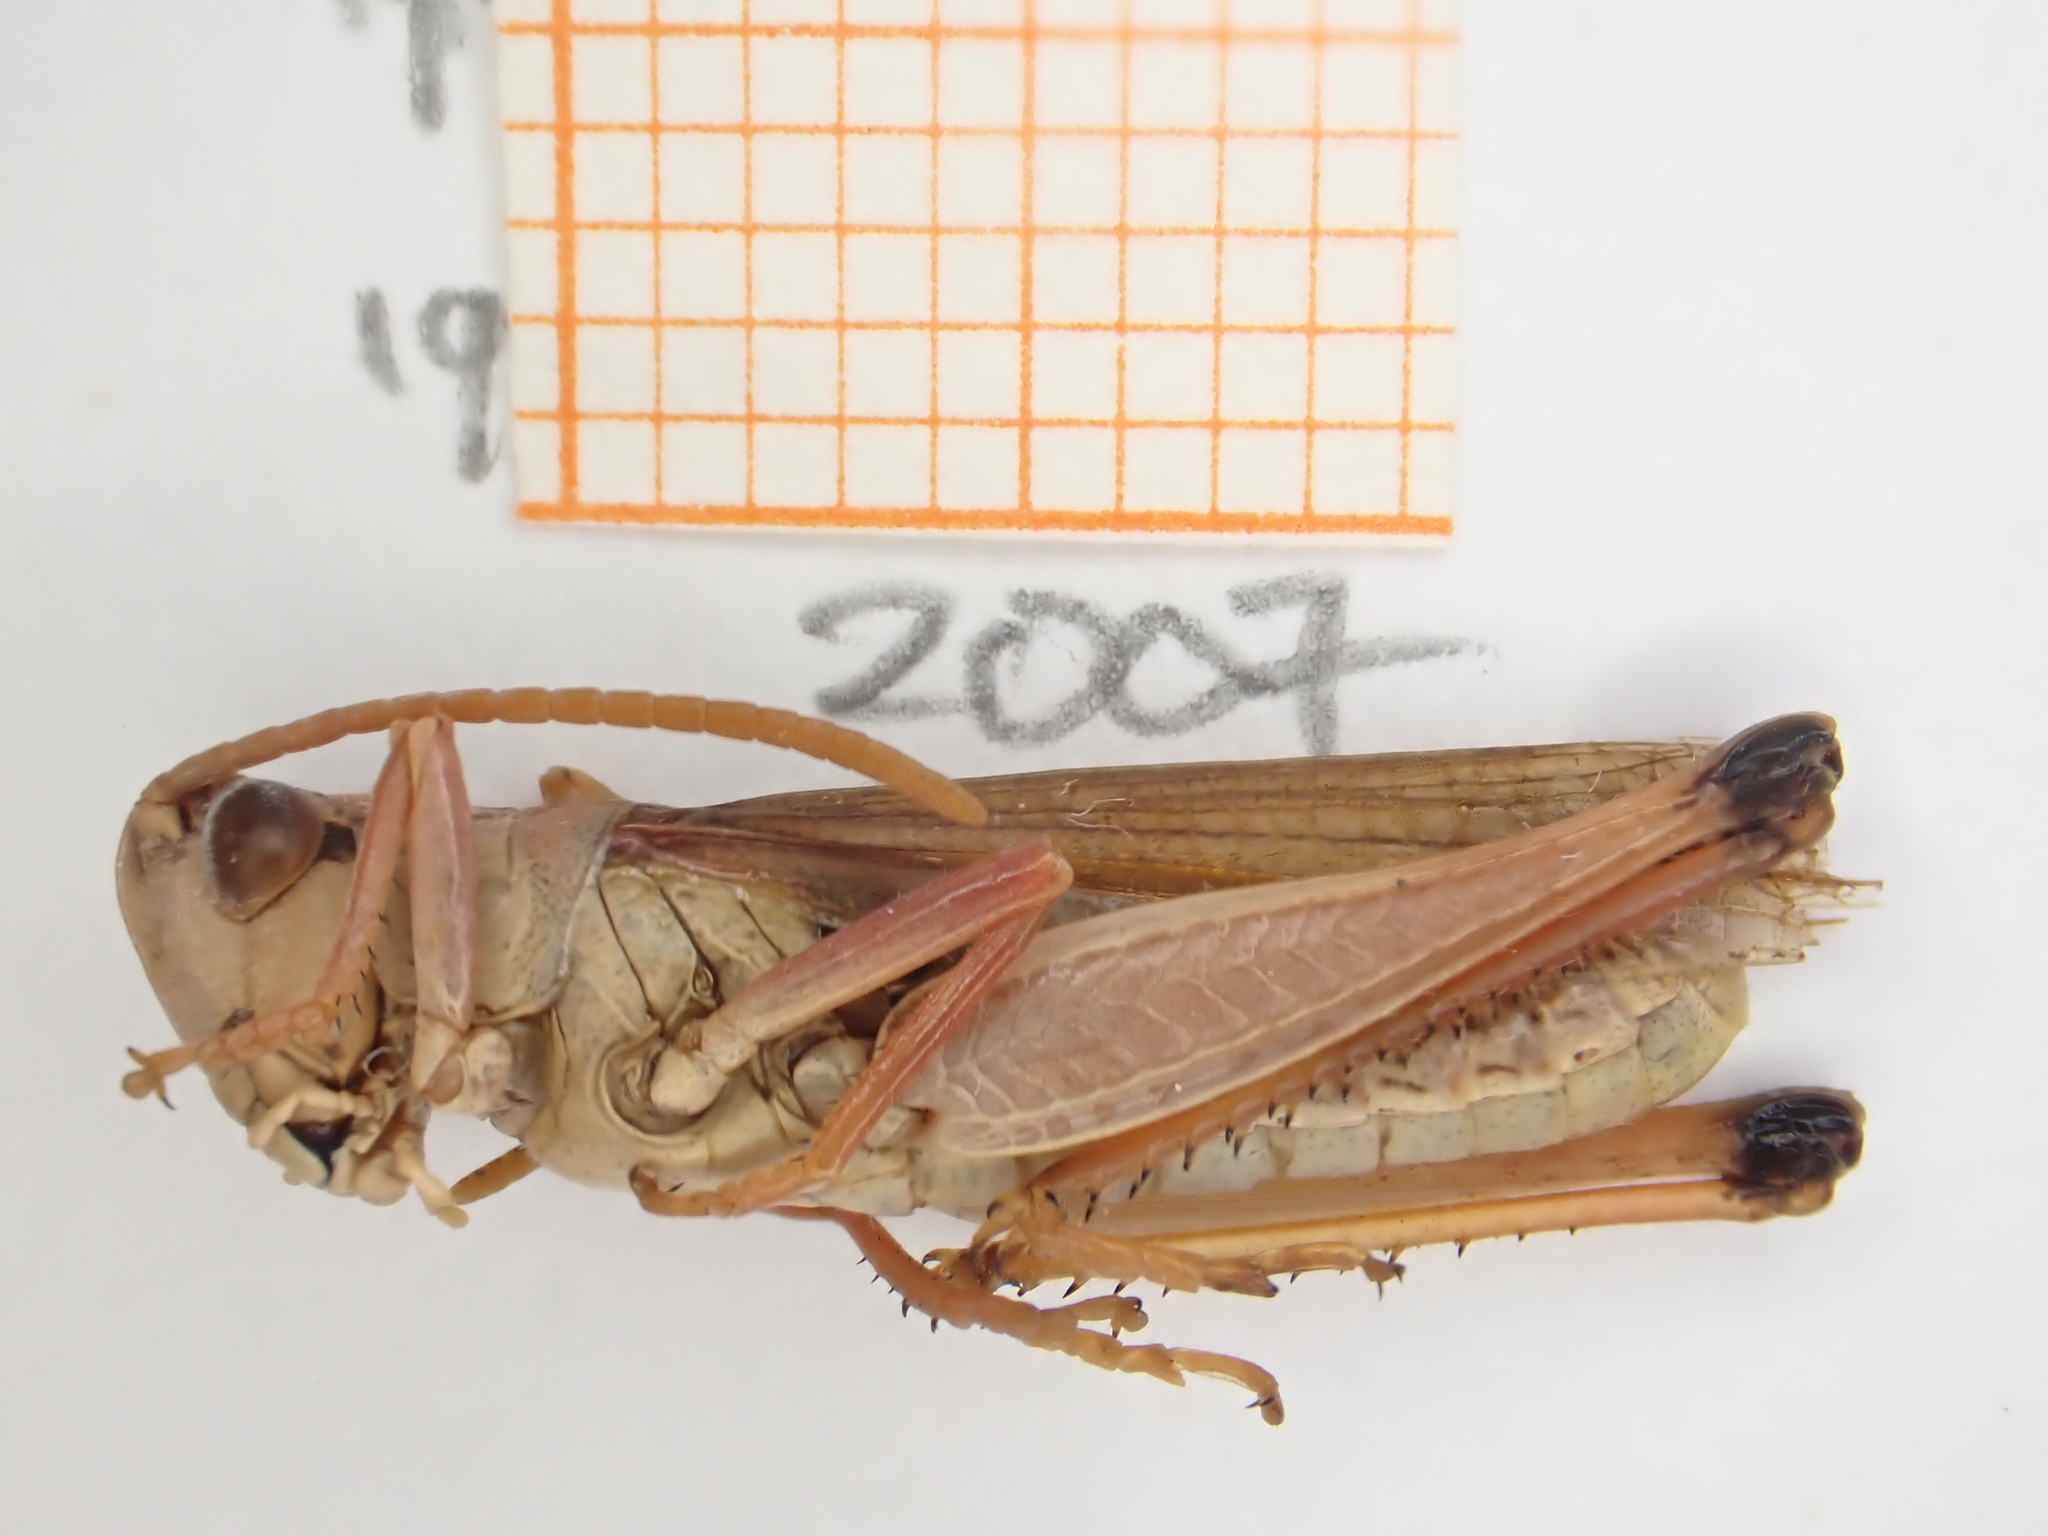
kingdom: Animalia
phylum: Arthropoda
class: Insecta
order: Orthoptera
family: Acrididae
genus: Pseudochorthippus
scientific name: Pseudochorthippus parallelus
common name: Meadow grasshopper
